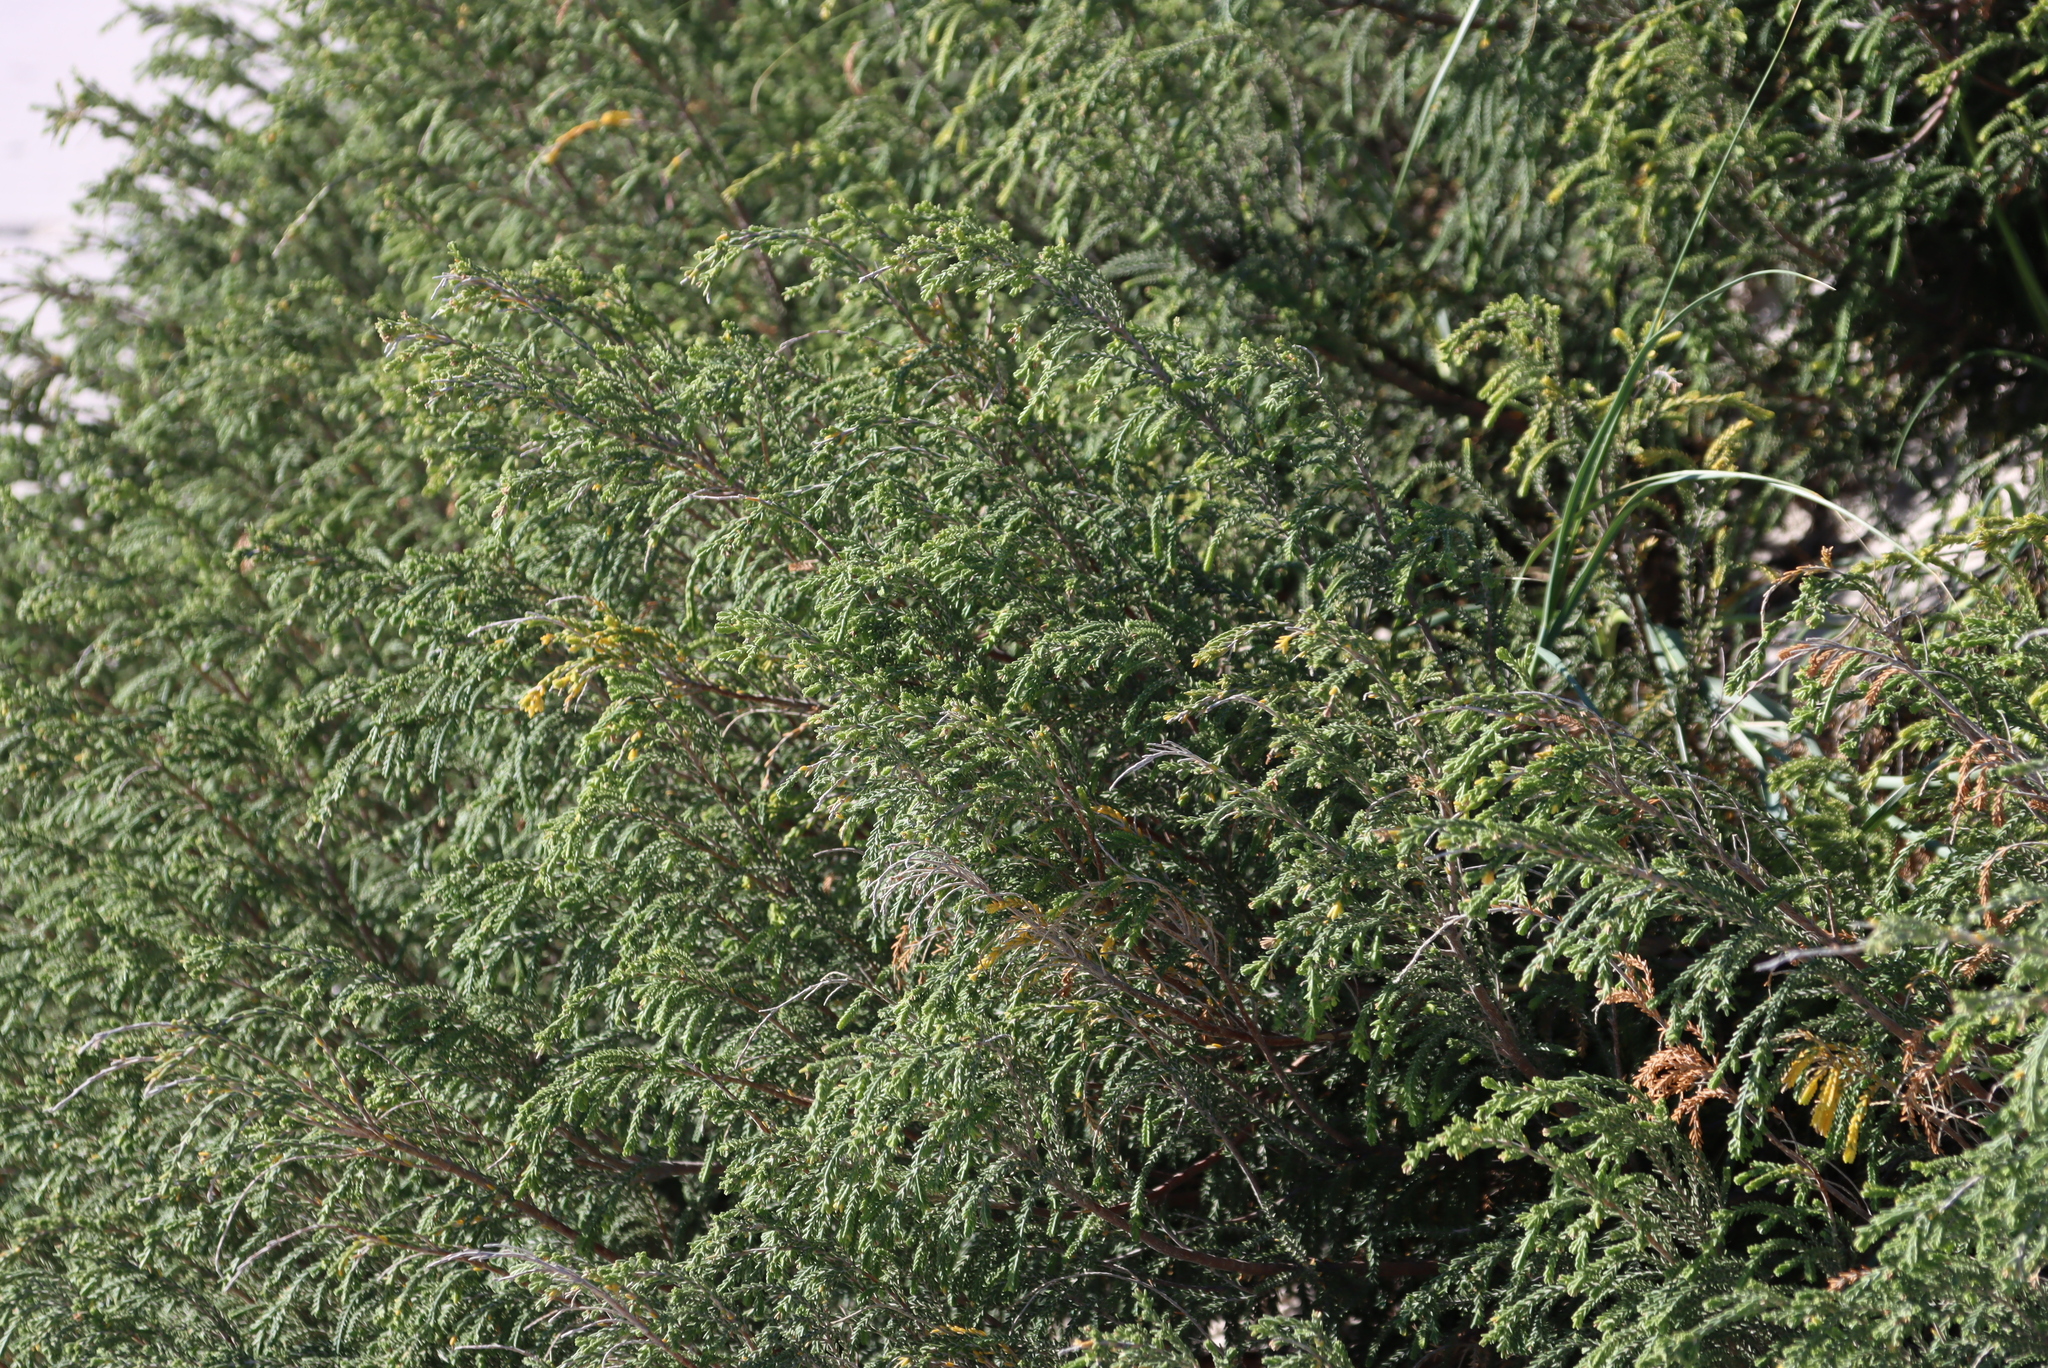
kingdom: Plantae
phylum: Tracheophyta
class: Magnoliopsida
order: Malvales
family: Thymelaeaceae
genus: Passerina
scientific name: Passerina ericoides
